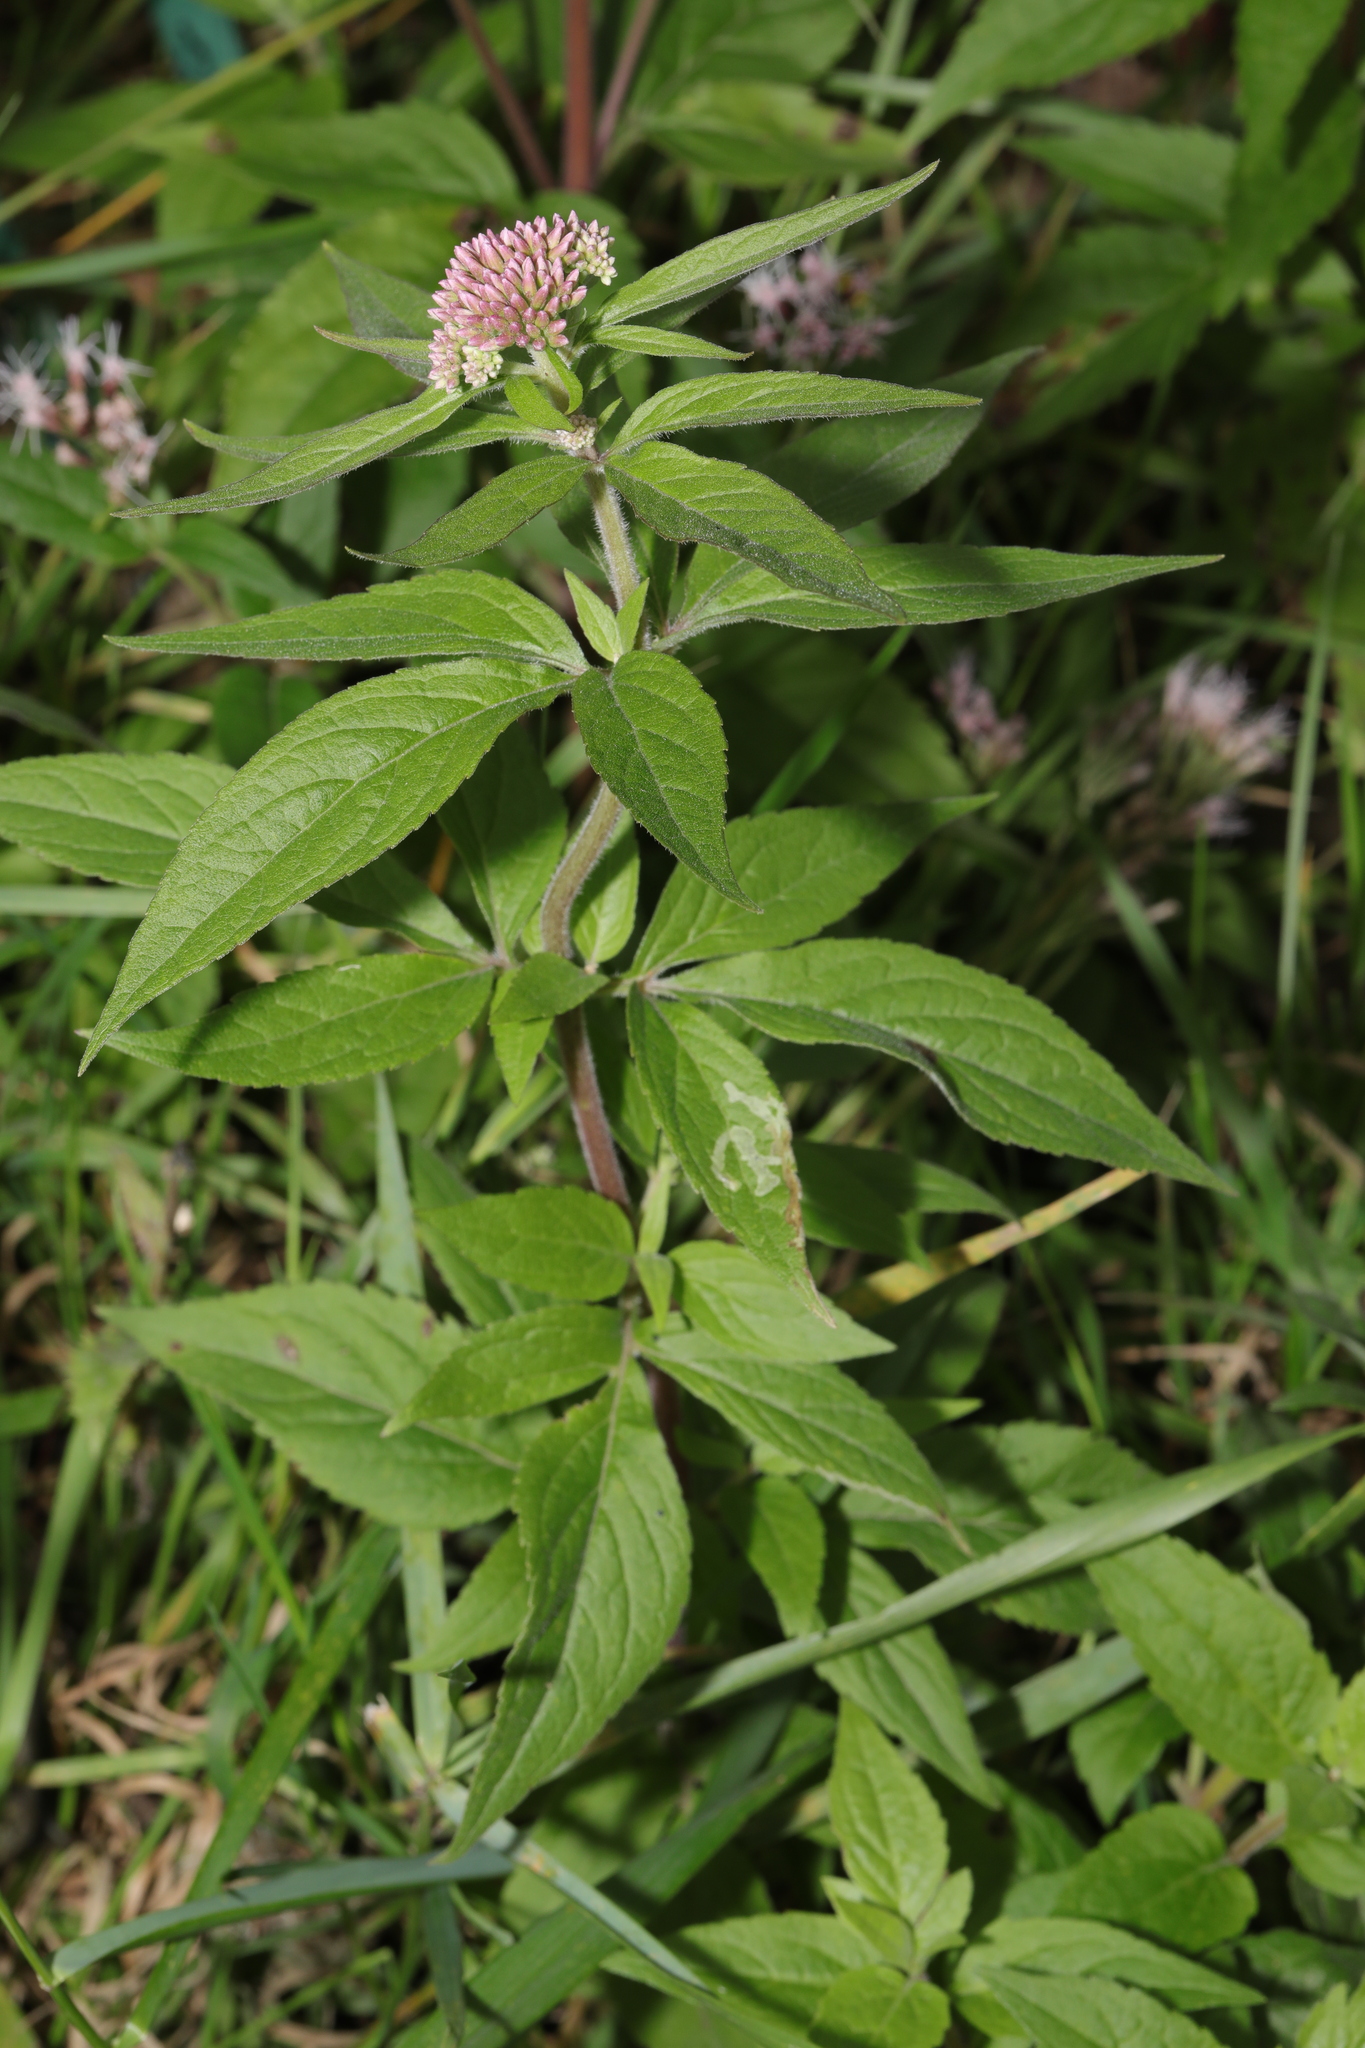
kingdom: Plantae
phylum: Tracheophyta
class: Magnoliopsida
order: Asterales
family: Asteraceae
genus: Eupatorium
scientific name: Eupatorium cannabinum
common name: Hemp-agrimony
